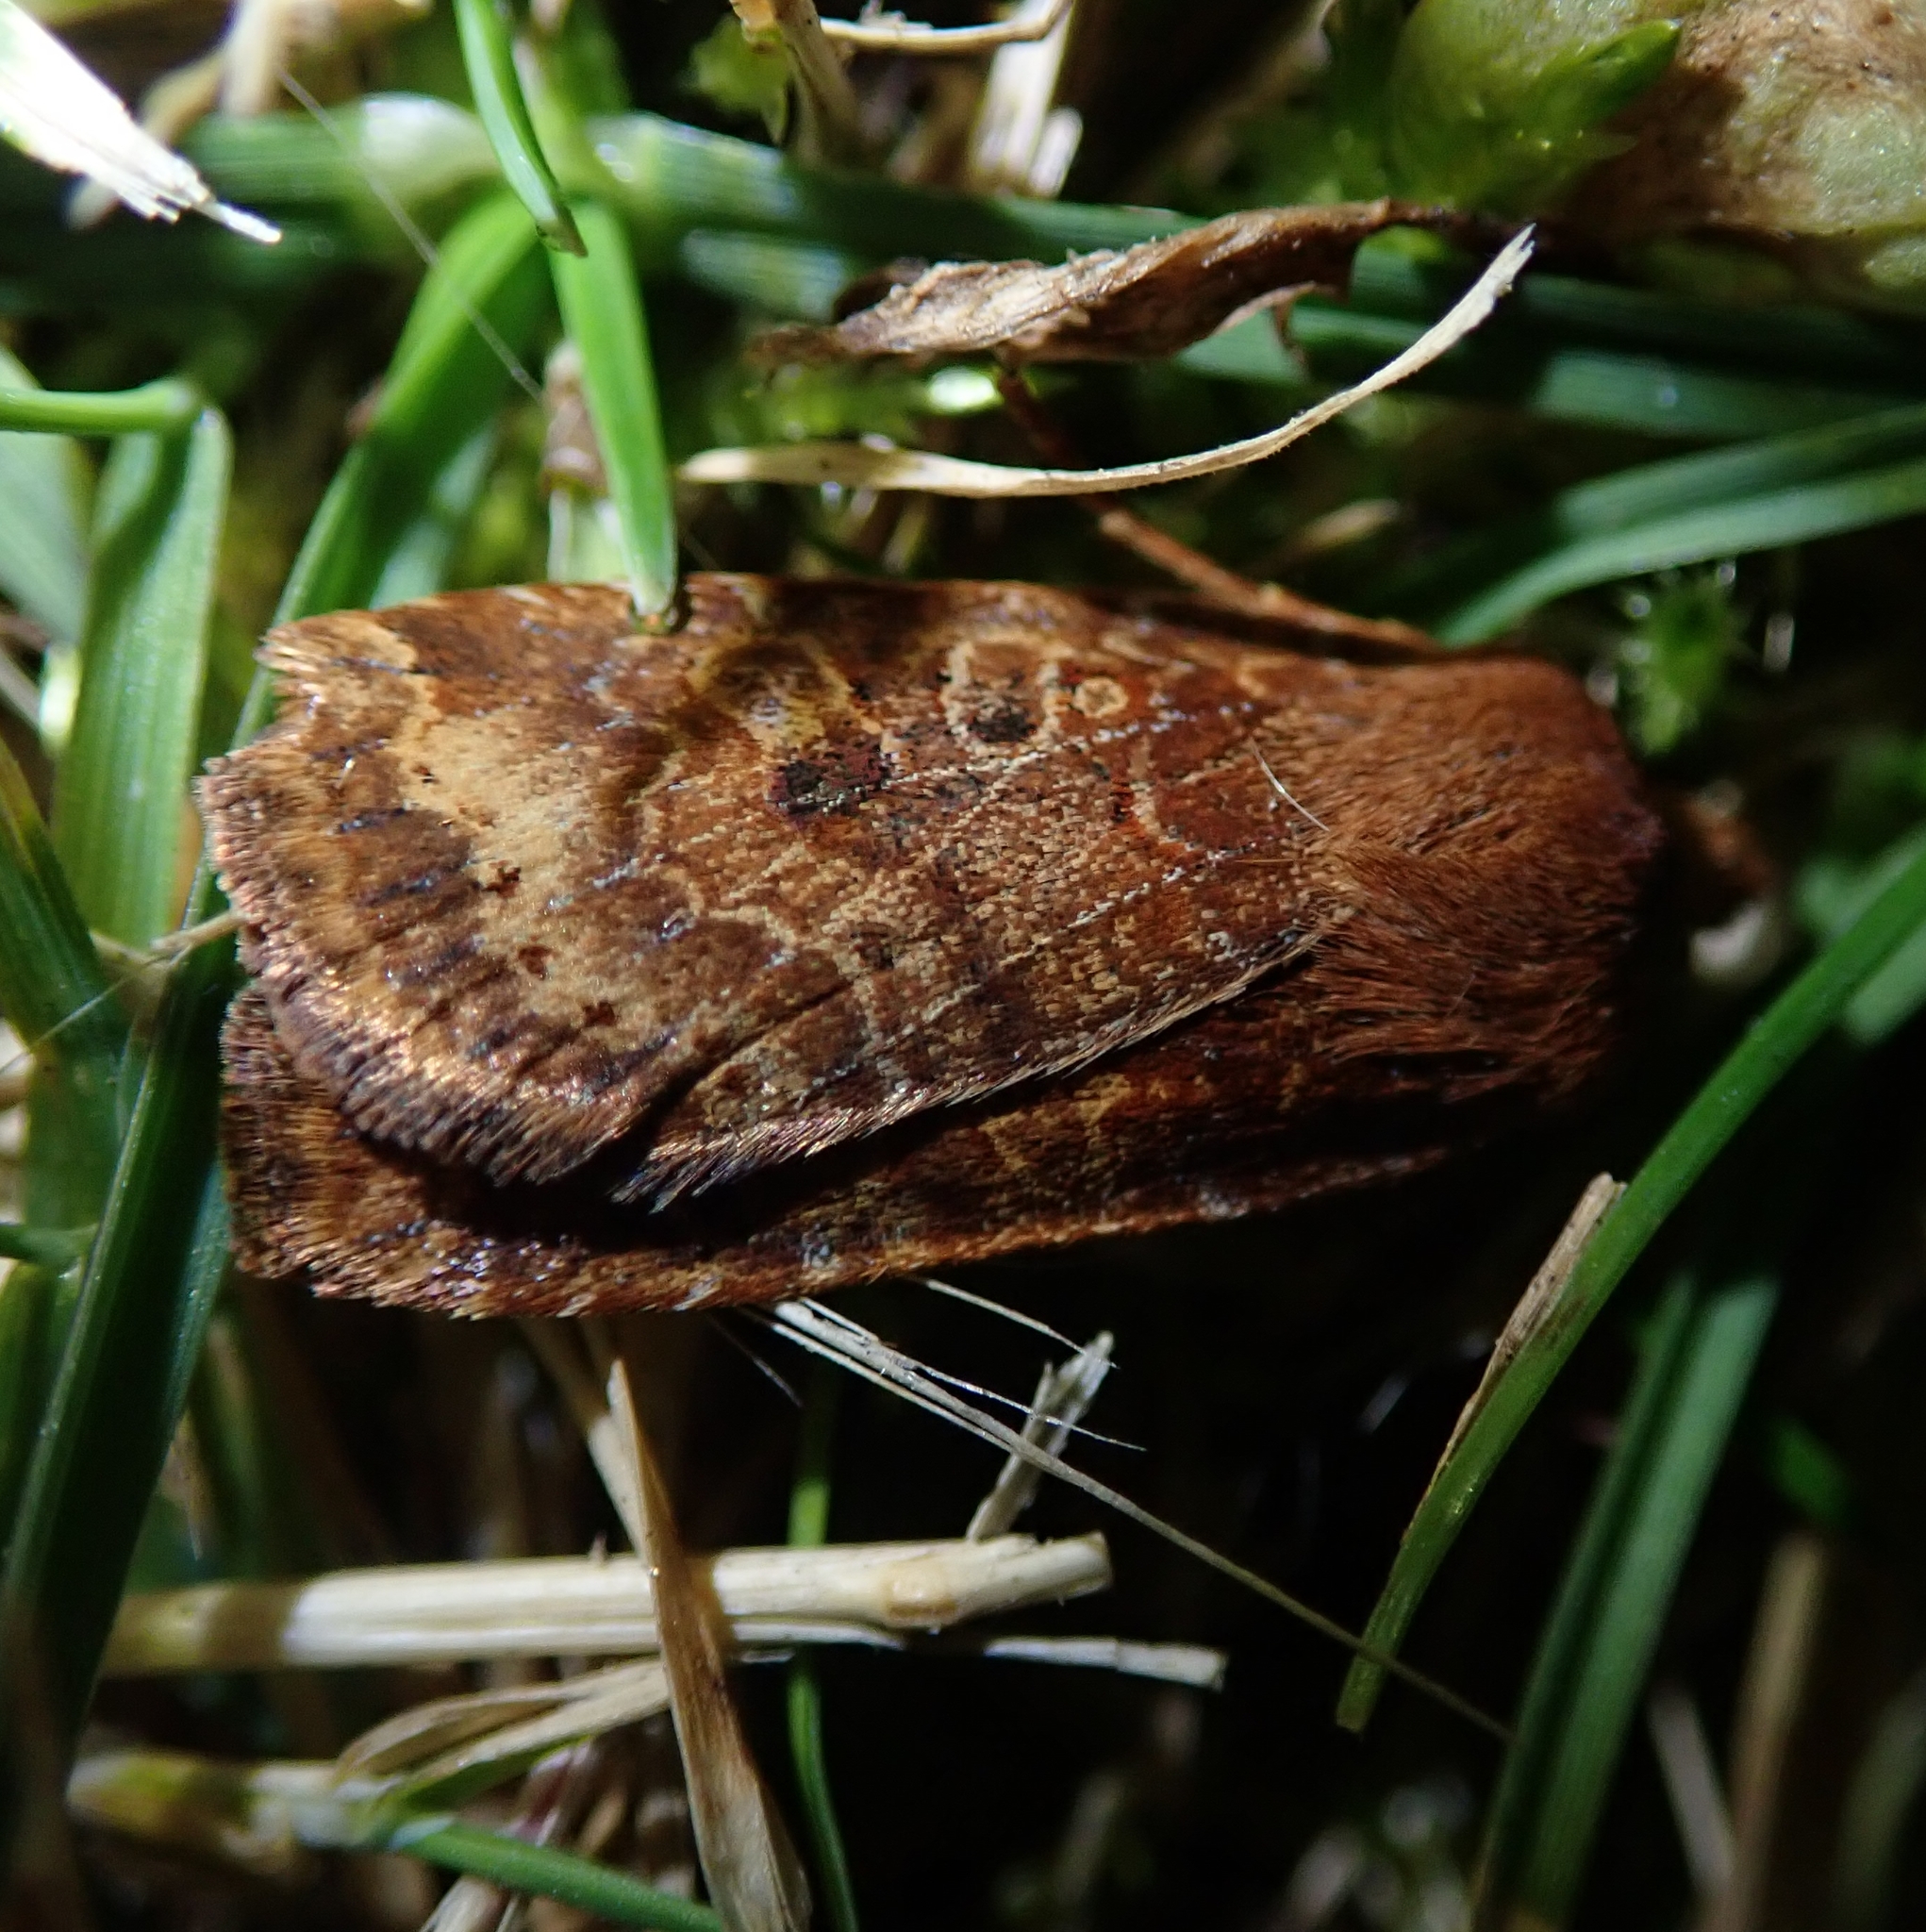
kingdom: Animalia
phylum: Arthropoda
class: Insecta
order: Lepidoptera
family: Noctuidae
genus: Conistra
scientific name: Conistra vaccinii
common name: Chestnut
